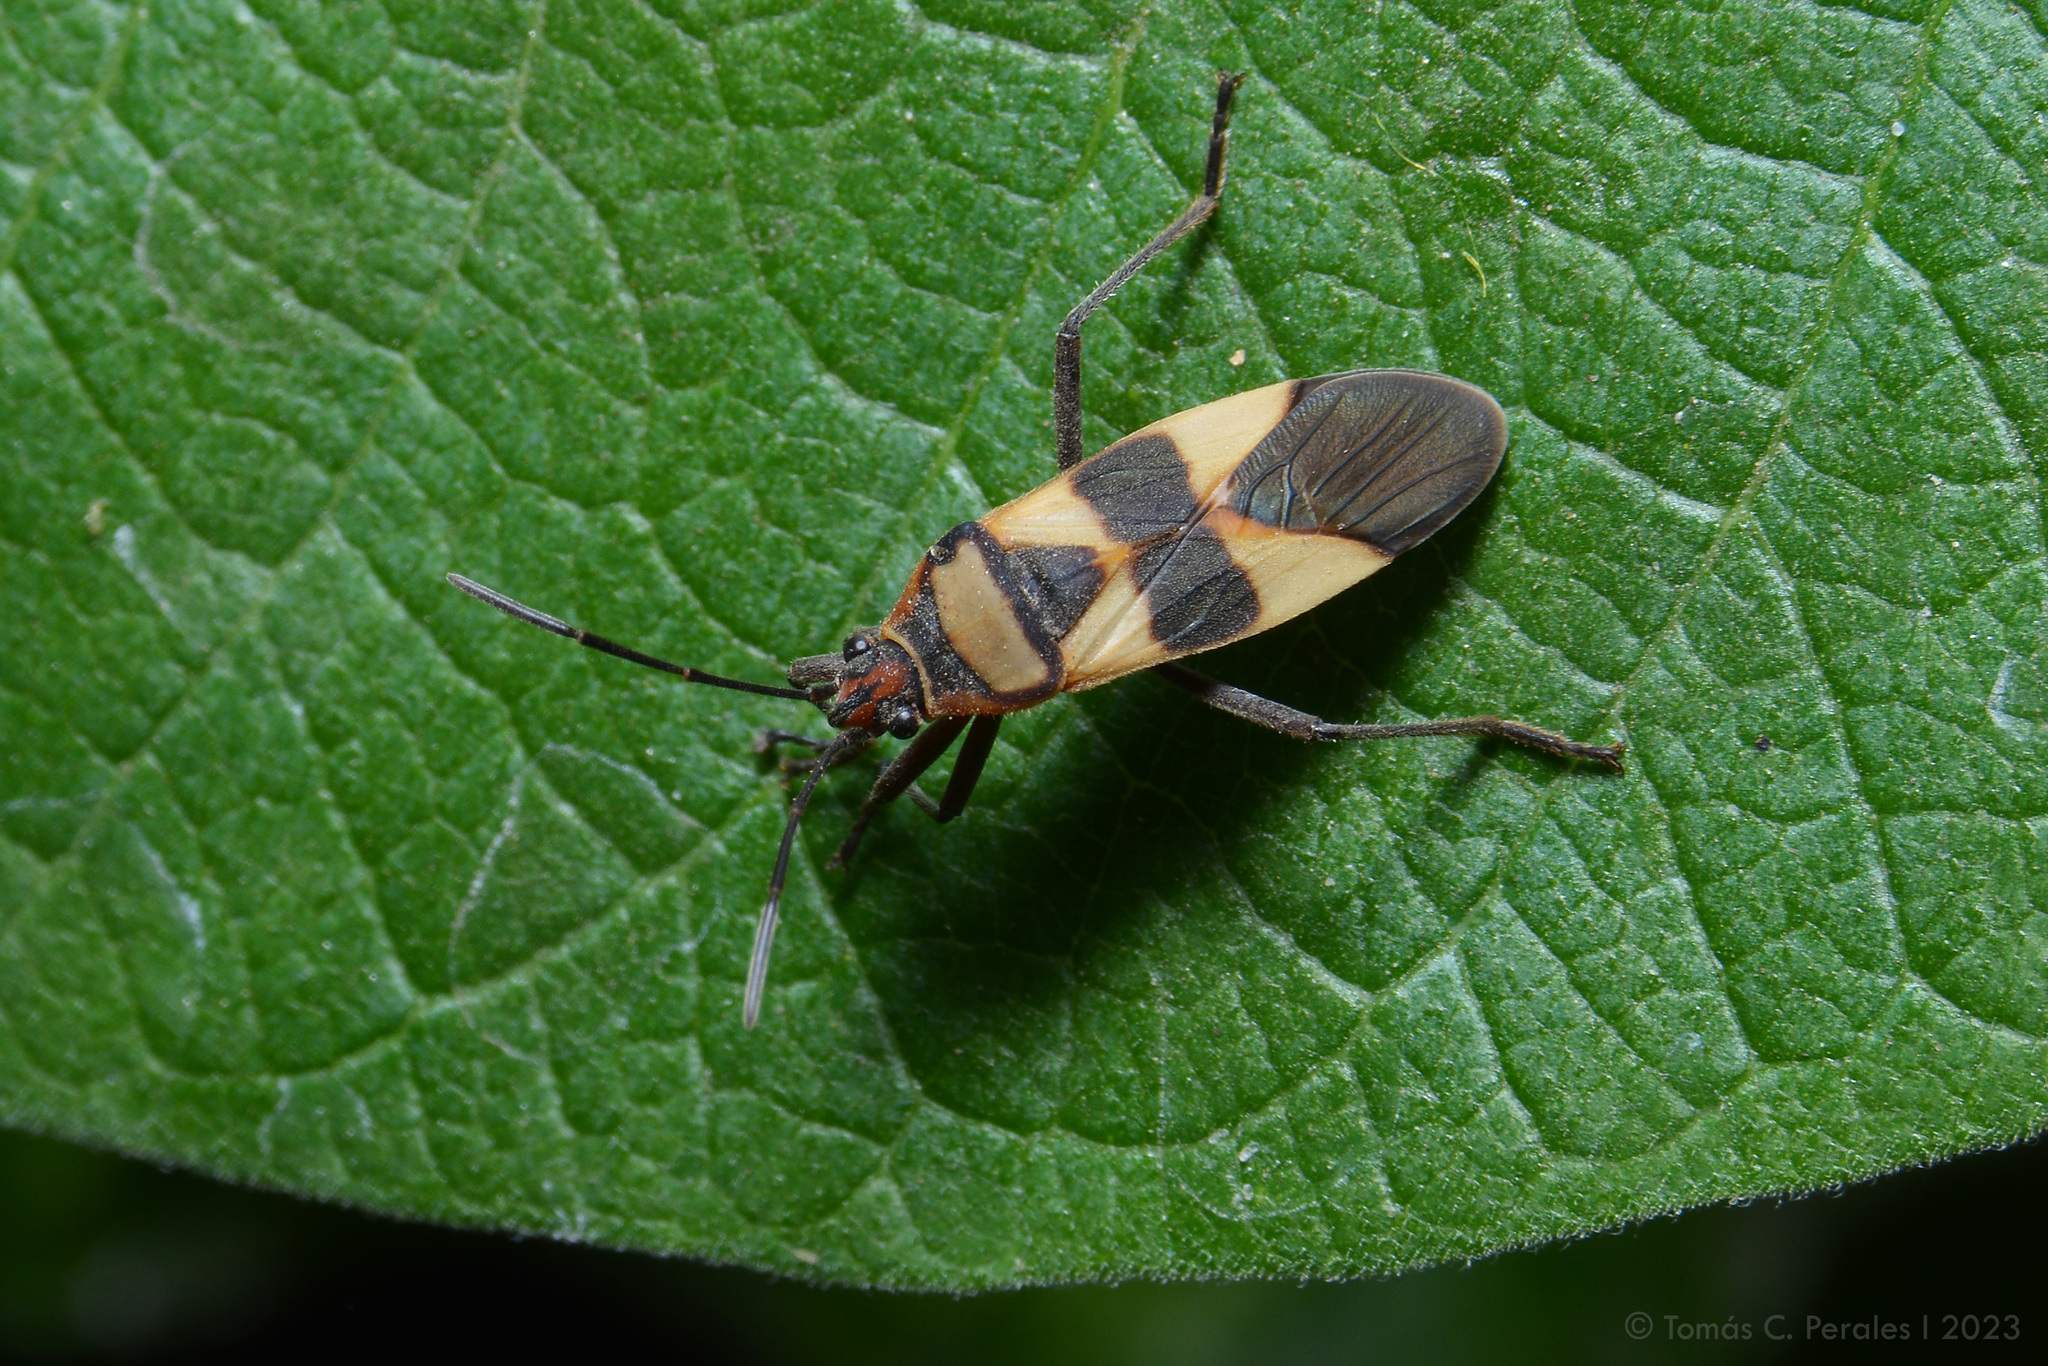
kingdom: Animalia
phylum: Arthropoda
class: Insecta
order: Hemiptera
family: Lygaeidae
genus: Oncopeltus
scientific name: Oncopeltus unifasciatellus
